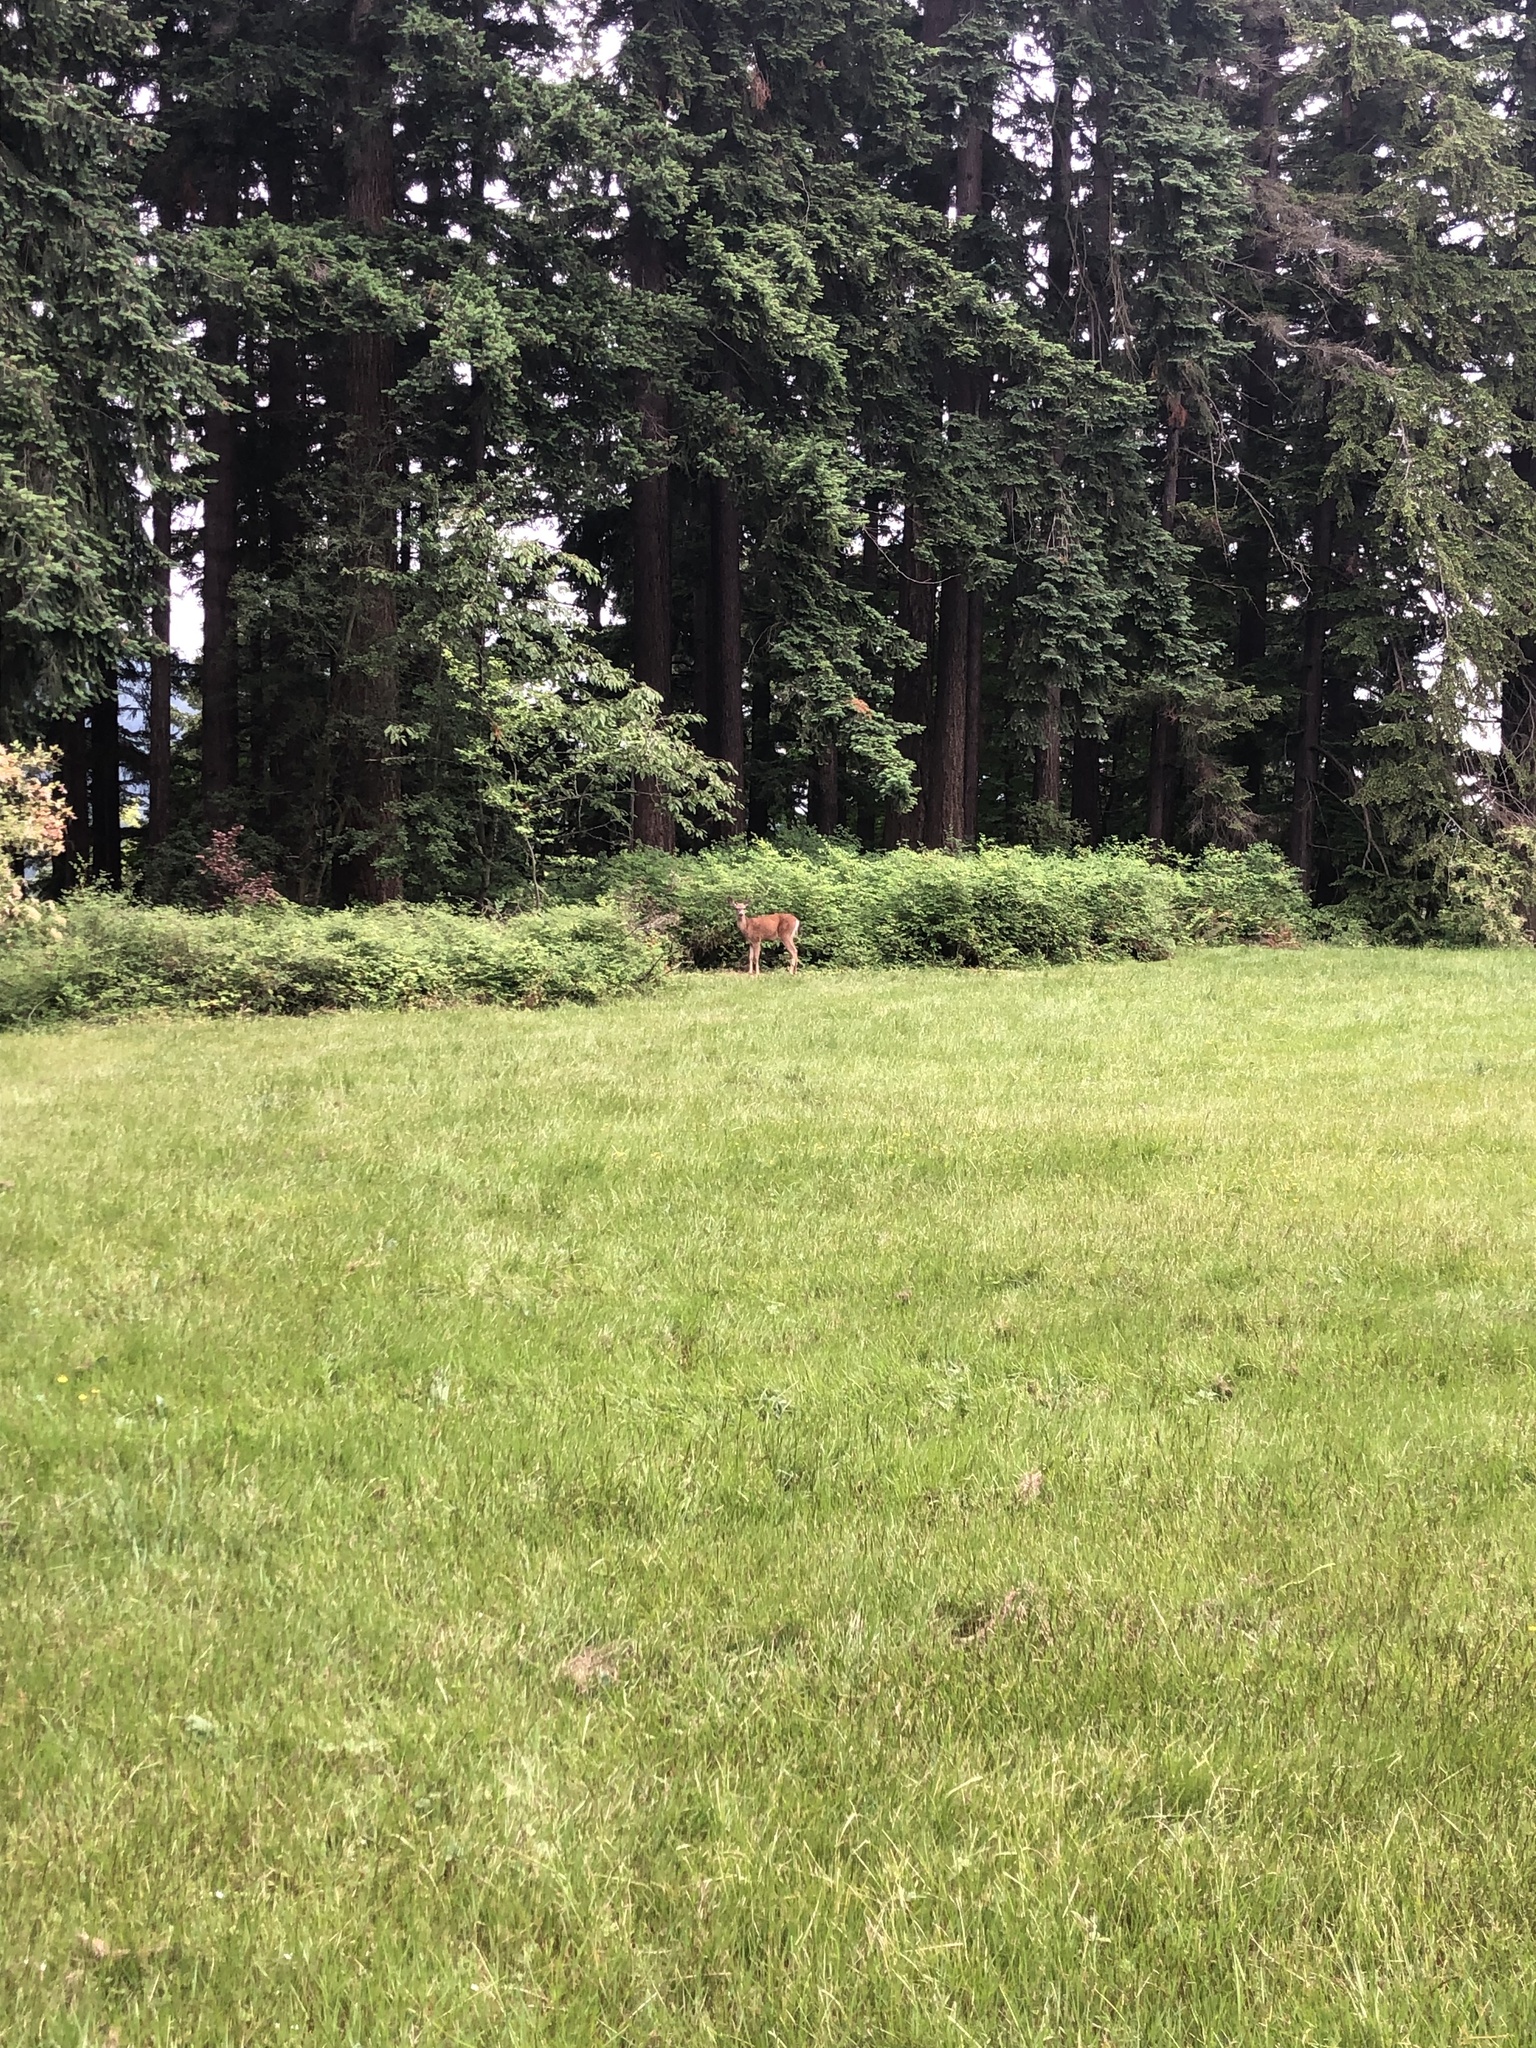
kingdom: Animalia
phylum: Chordata
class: Mammalia
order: Artiodactyla
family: Cervidae
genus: Odocoileus
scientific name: Odocoileus hemionus
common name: Mule deer
